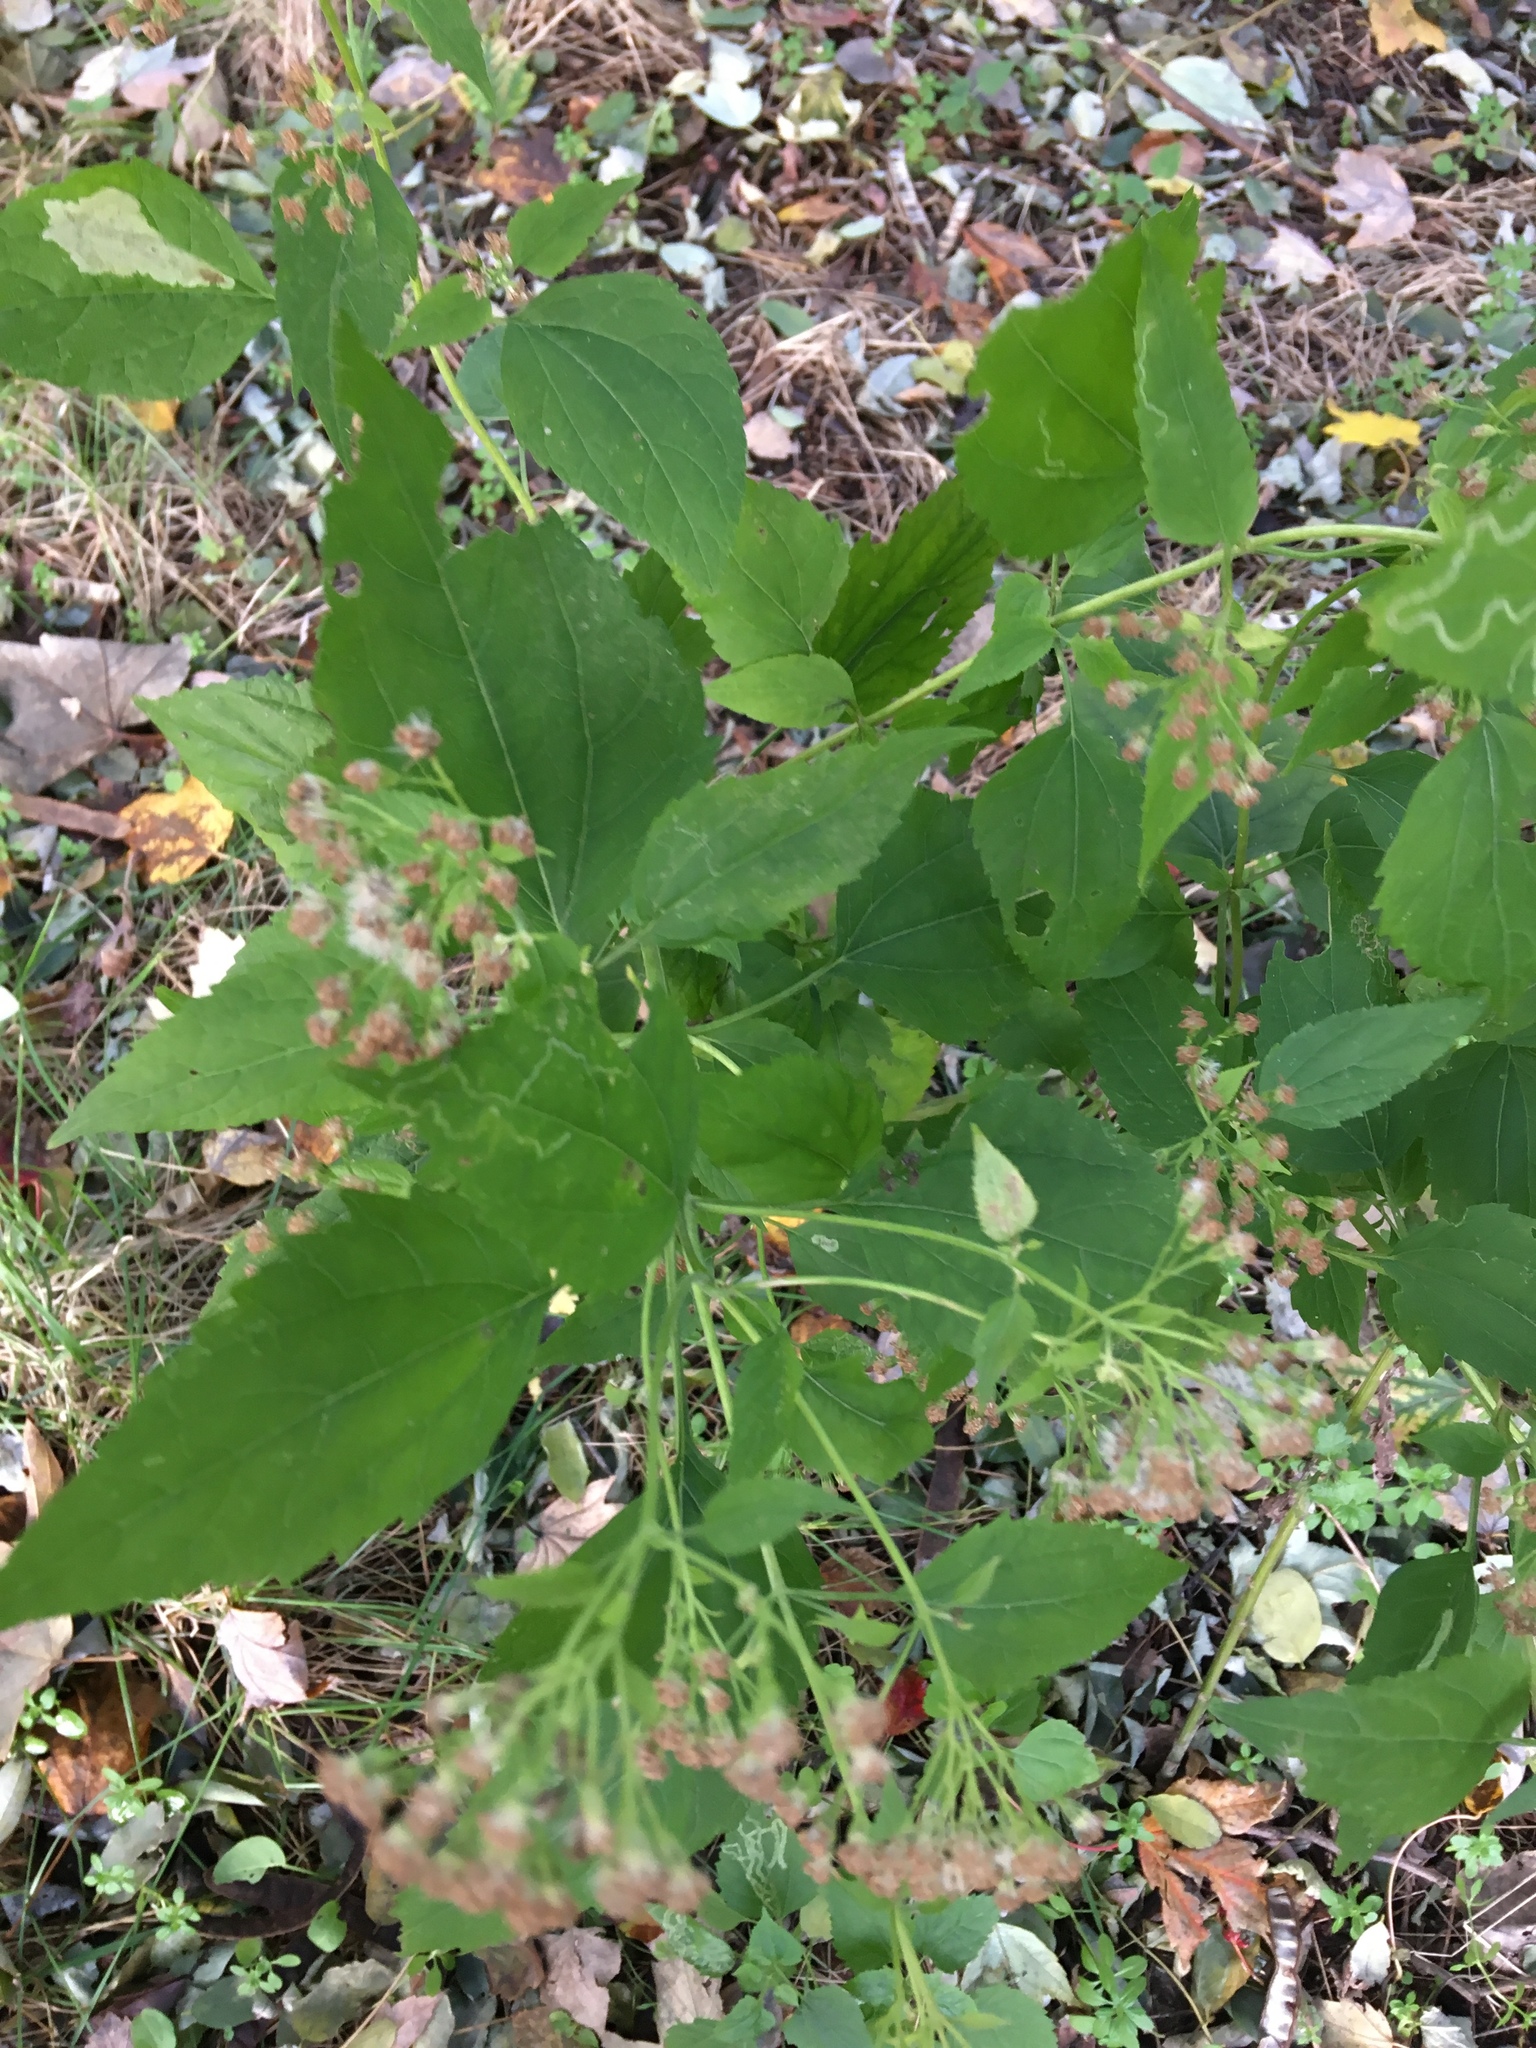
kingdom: Plantae
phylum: Tracheophyta
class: Magnoliopsida
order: Asterales
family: Asteraceae
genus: Ageratina
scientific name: Ageratina altissima
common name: White snakeroot
